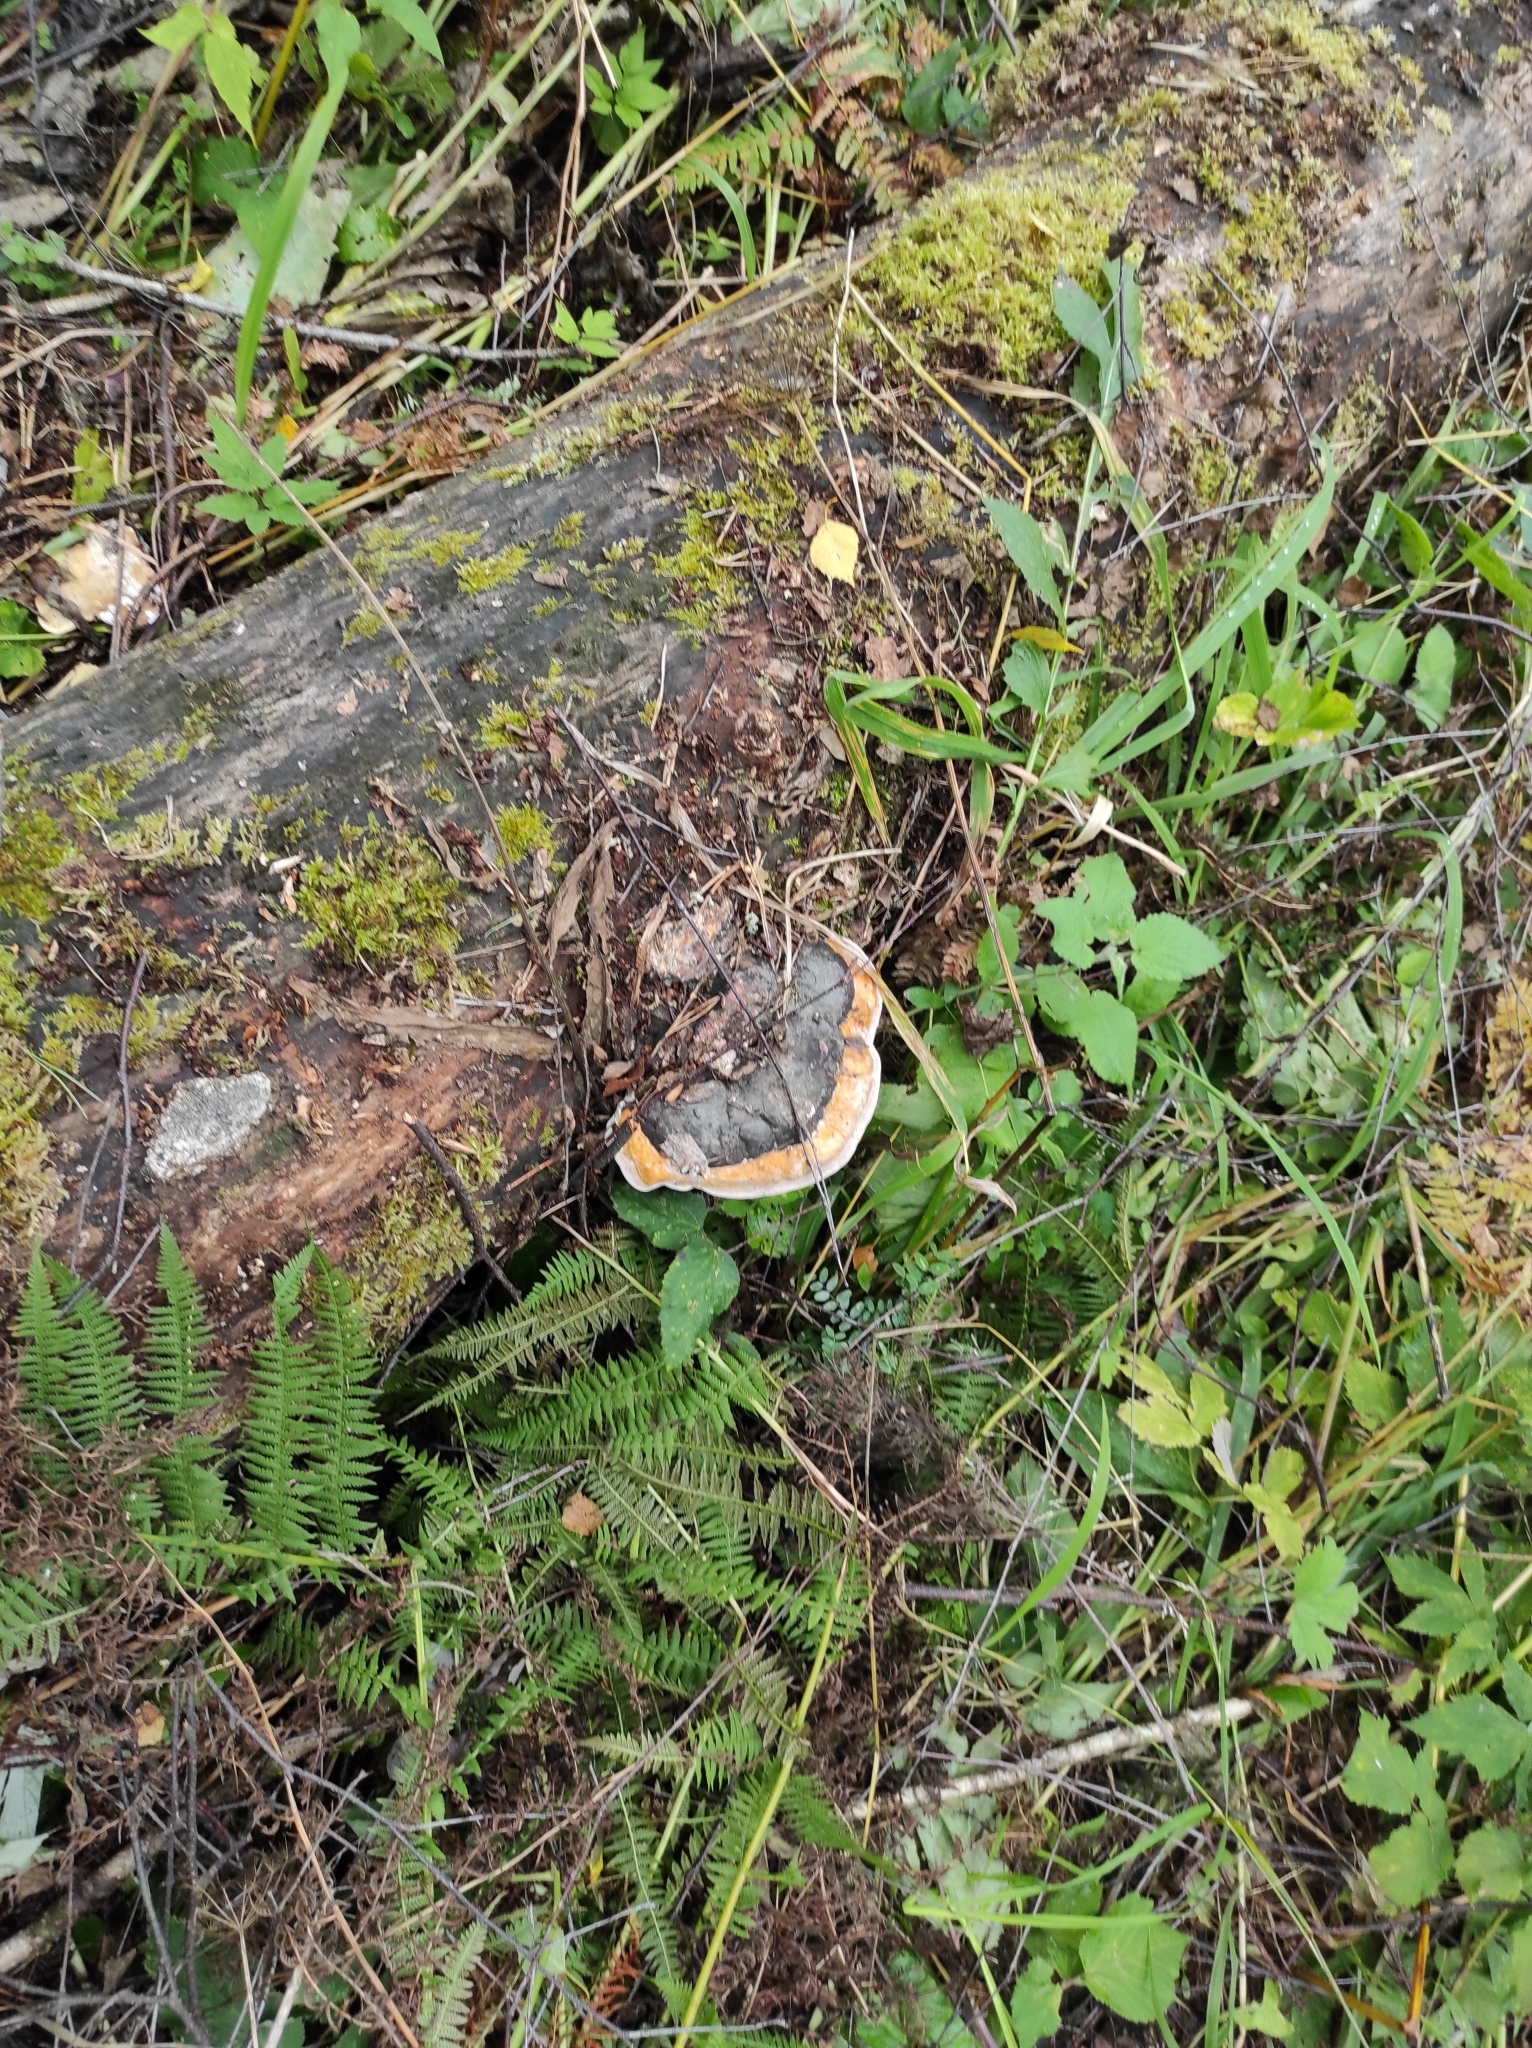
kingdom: Fungi
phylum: Basidiomycota
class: Agaricomycetes
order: Polyporales
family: Fomitopsidaceae
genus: Fomitopsis
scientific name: Fomitopsis pinicola
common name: Red-belted bracket
